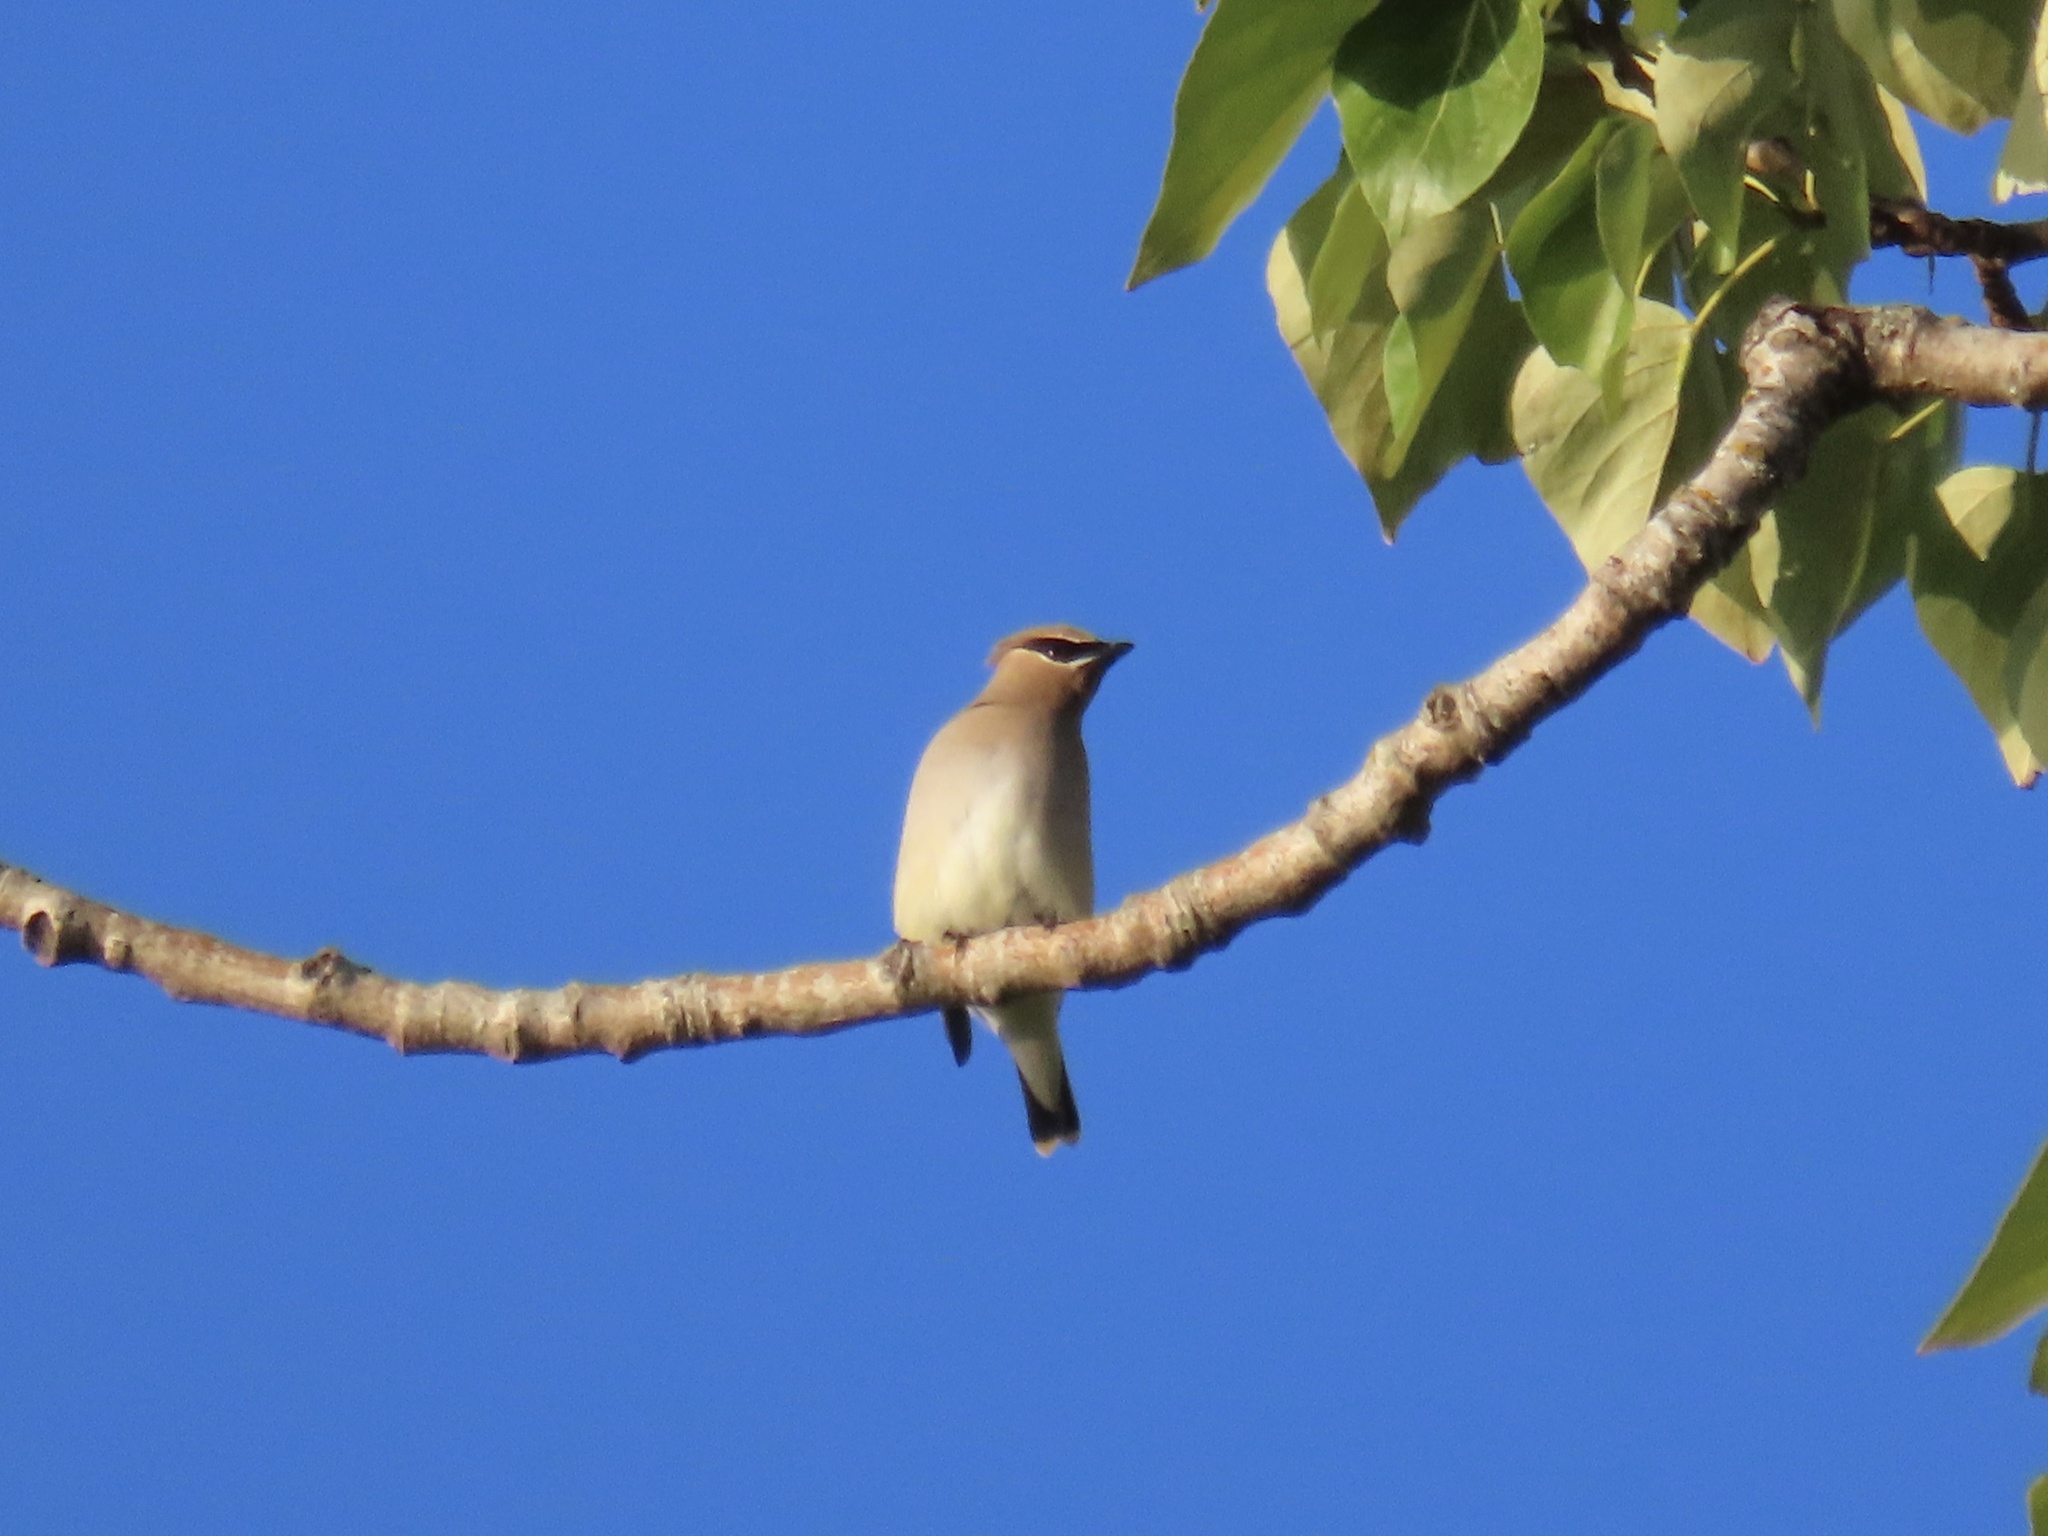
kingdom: Animalia
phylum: Chordata
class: Aves
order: Passeriformes
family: Bombycillidae
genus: Bombycilla
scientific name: Bombycilla cedrorum
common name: Cedar waxwing
